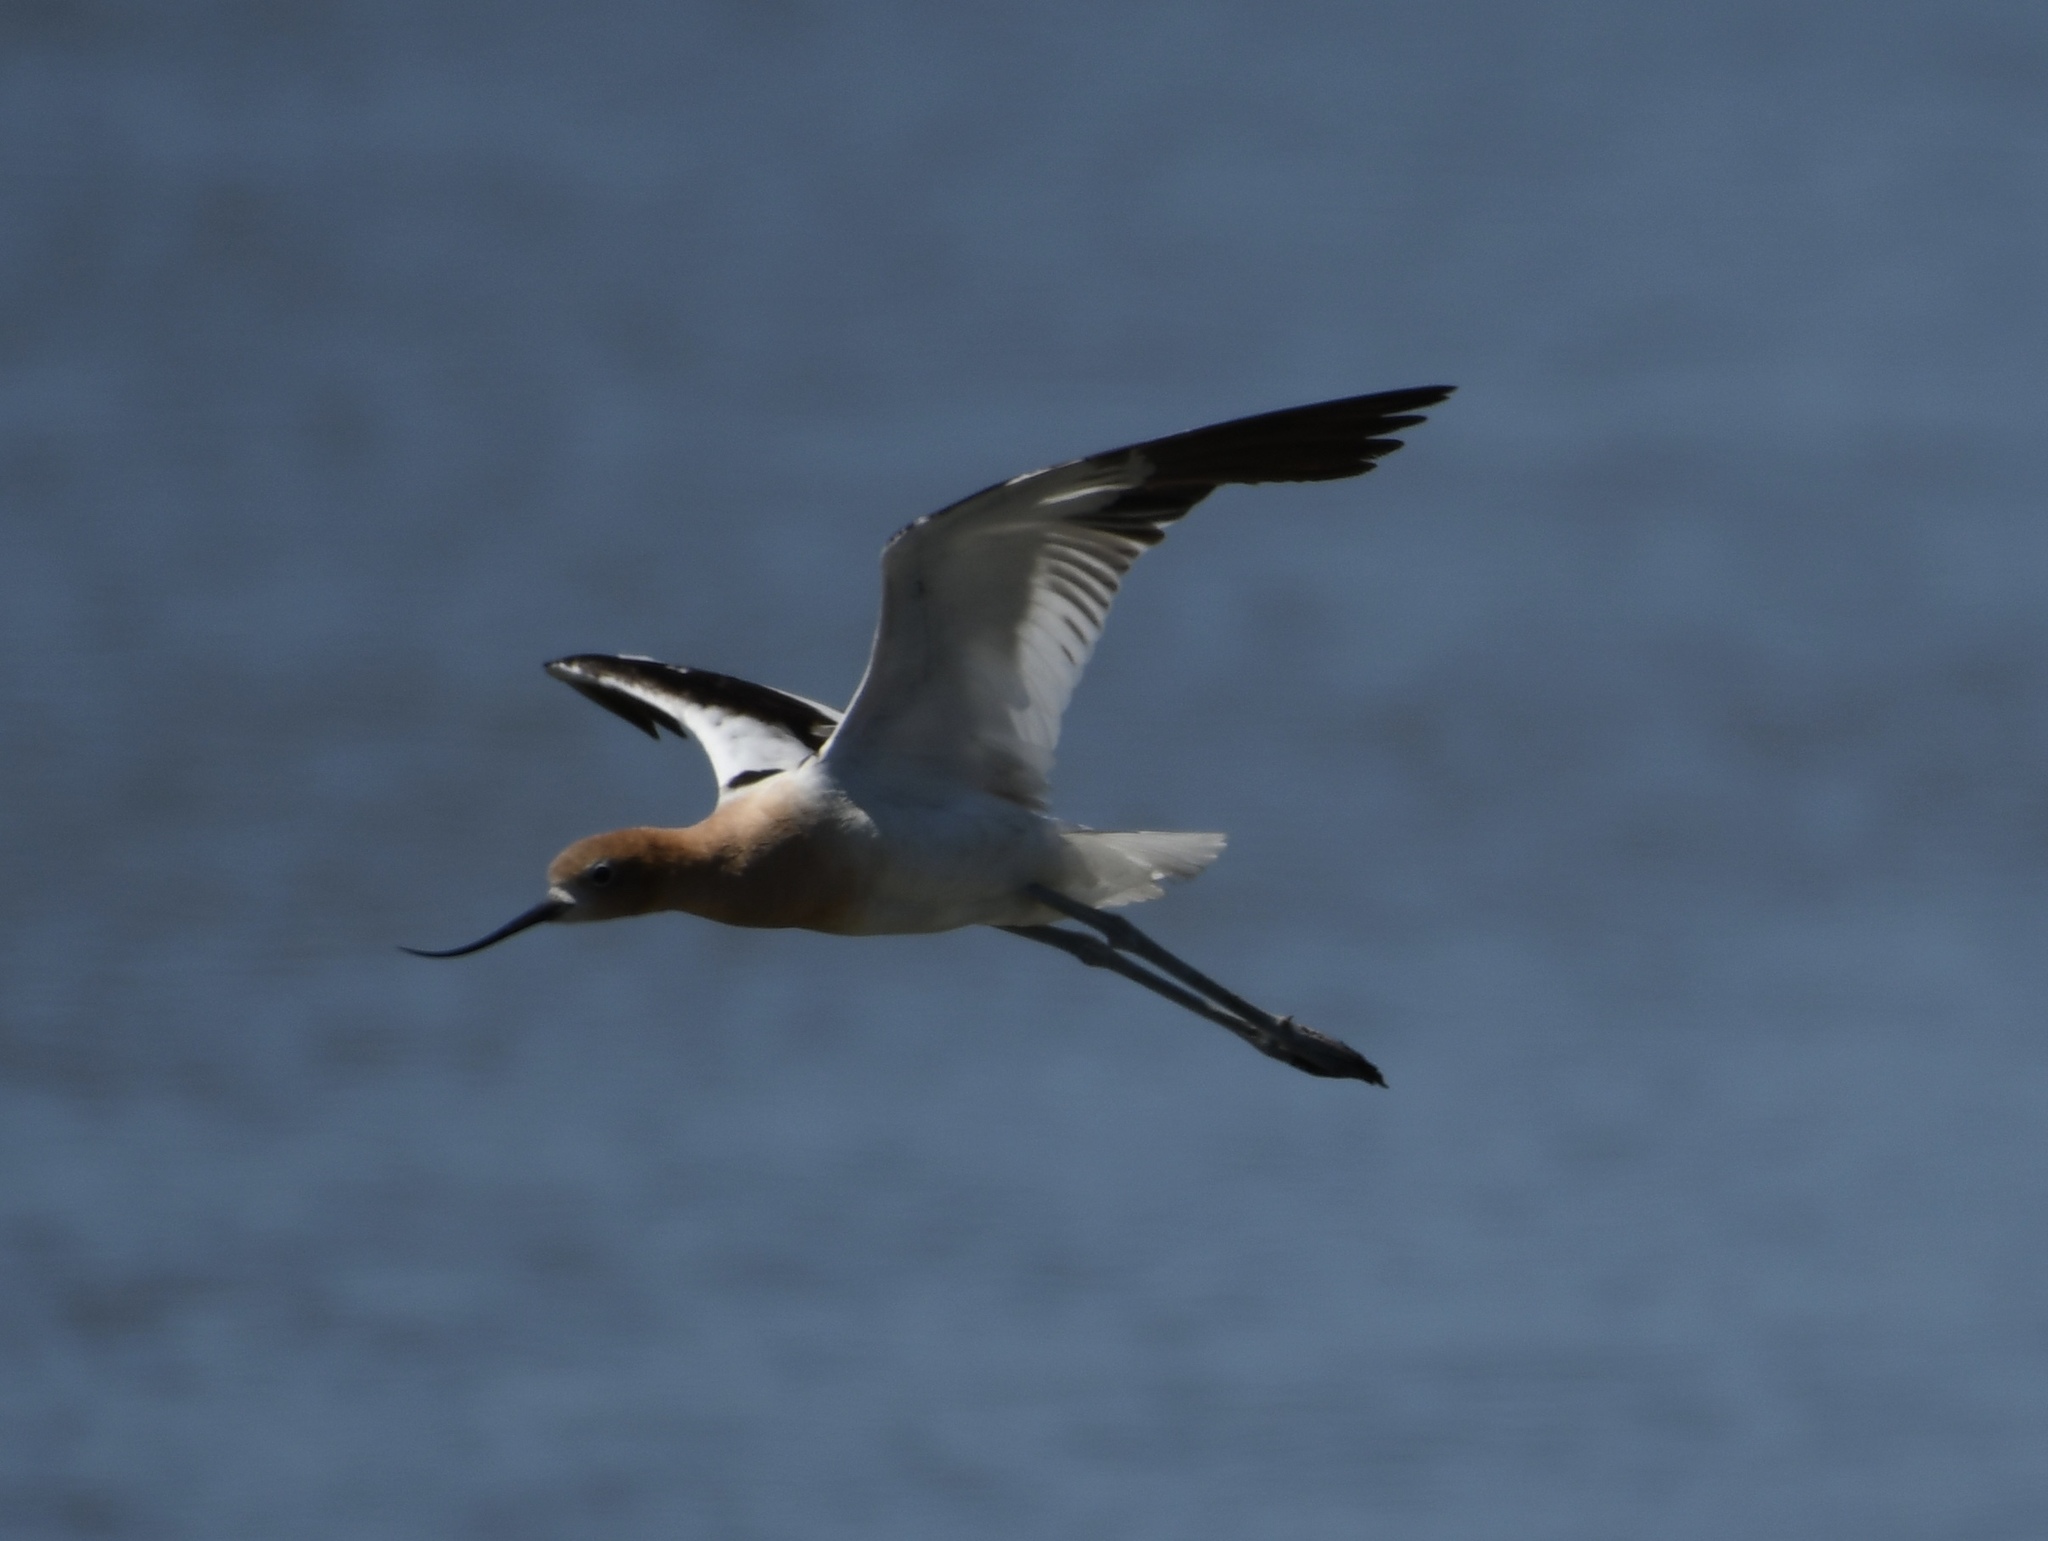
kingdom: Animalia
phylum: Chordata
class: Aves
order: Charadriiformes
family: Recurvirostridae
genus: Recurvirostra
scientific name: Recurvirostra americana
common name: American avocet
